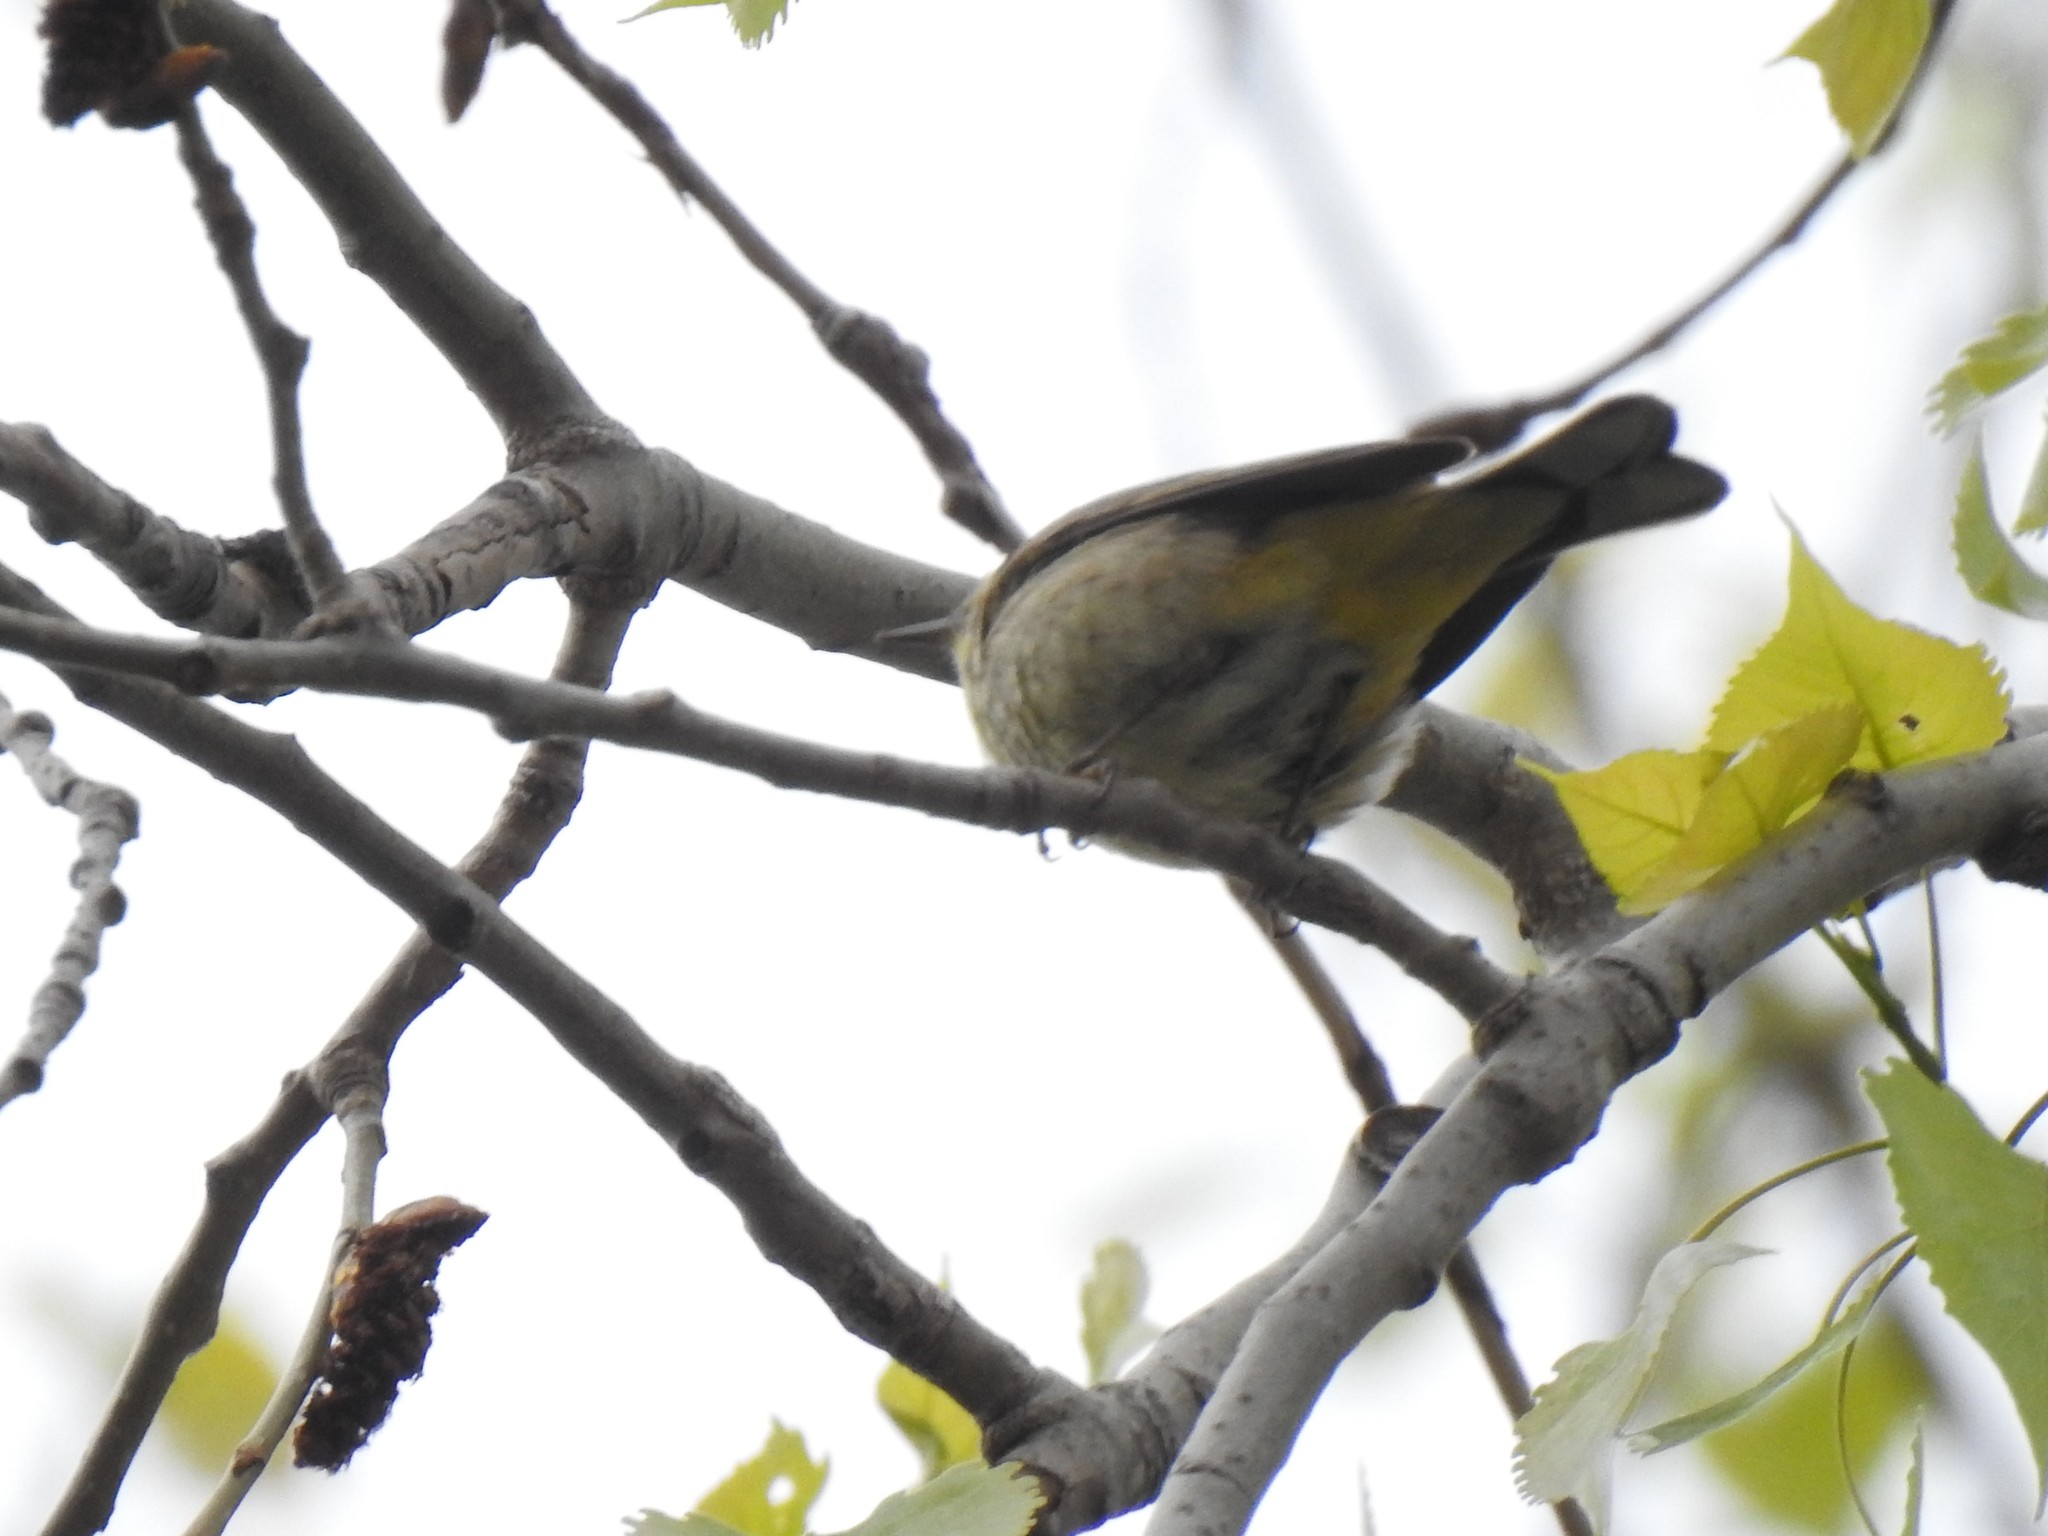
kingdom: Animalia
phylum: Chordata
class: Aves
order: Passeriformes
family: Parulidae
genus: Setophaga
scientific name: Setophaga palmarum
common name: Palm warbler
